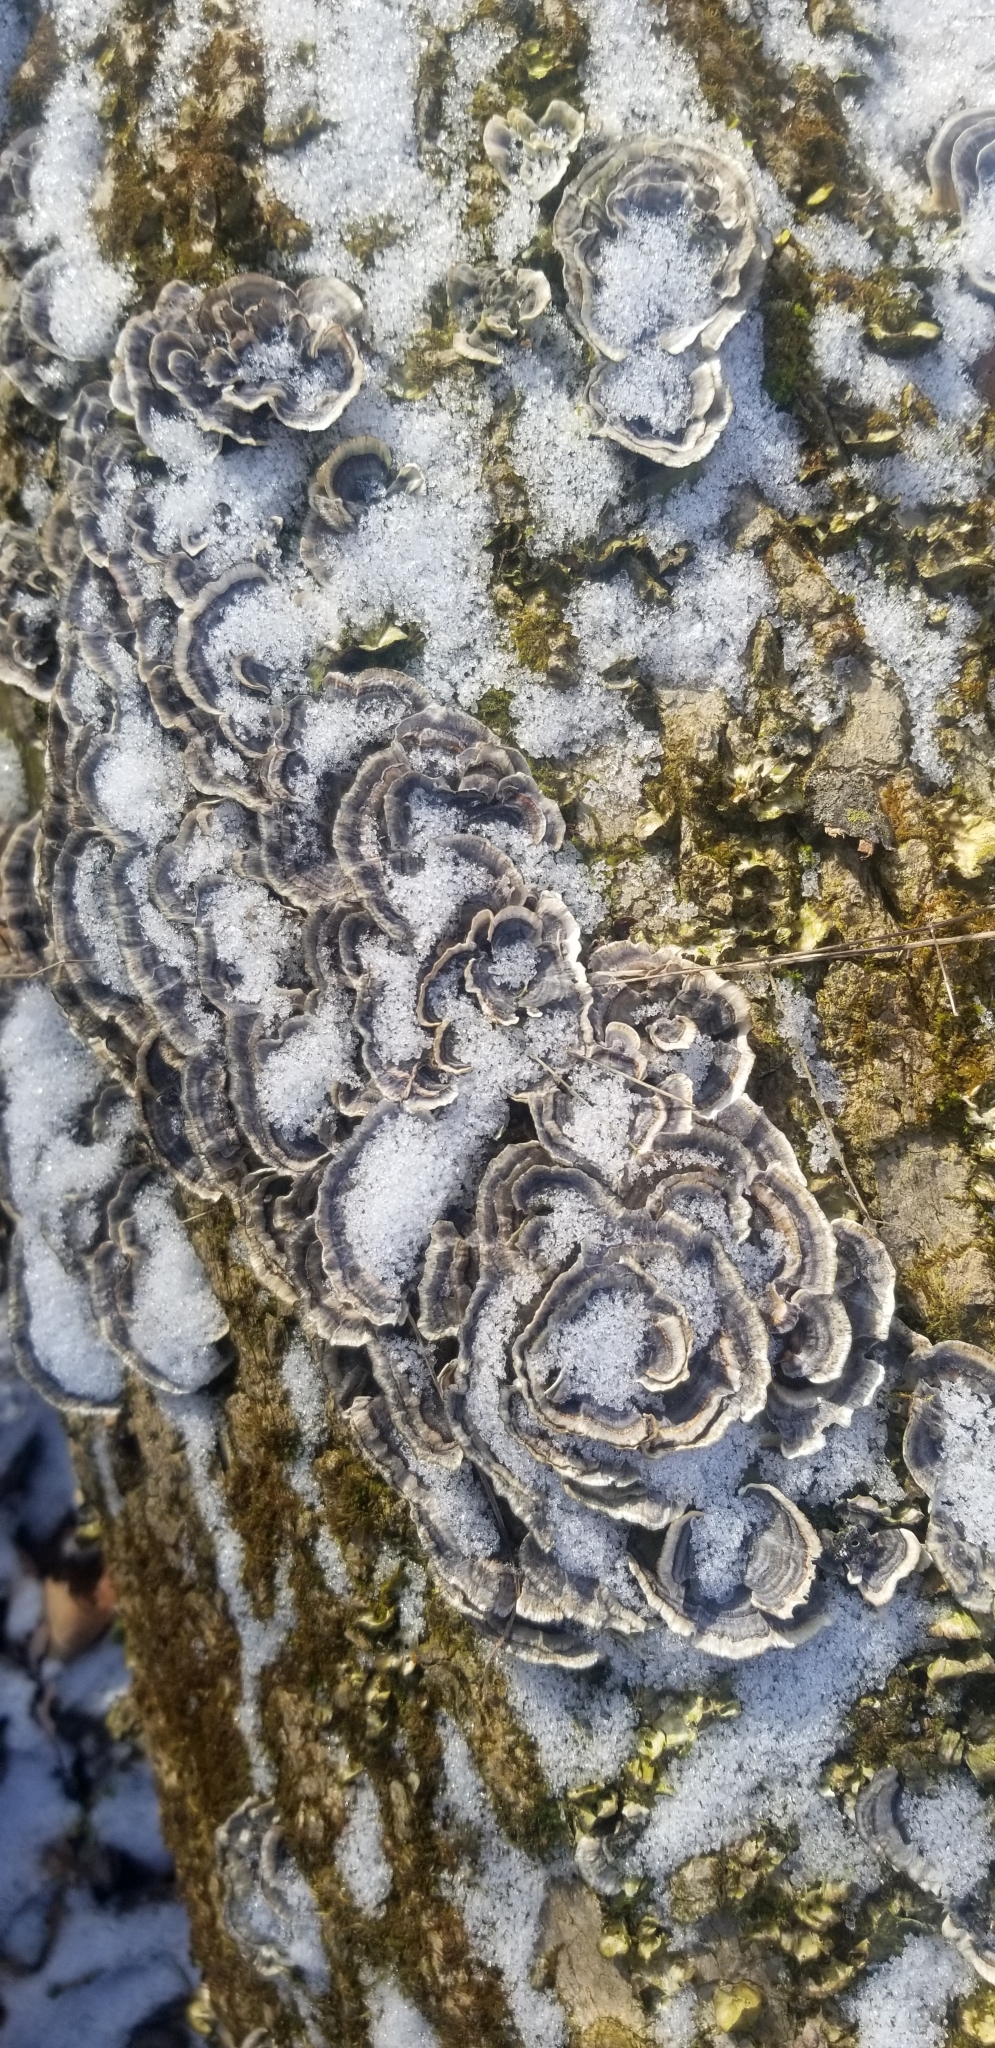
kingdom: Fungi
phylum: Basidiomycota
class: Agaricomycetes
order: Polyporales
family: Polyporaceae
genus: Trametes
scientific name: Trametes versicolor
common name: Turkeytail
